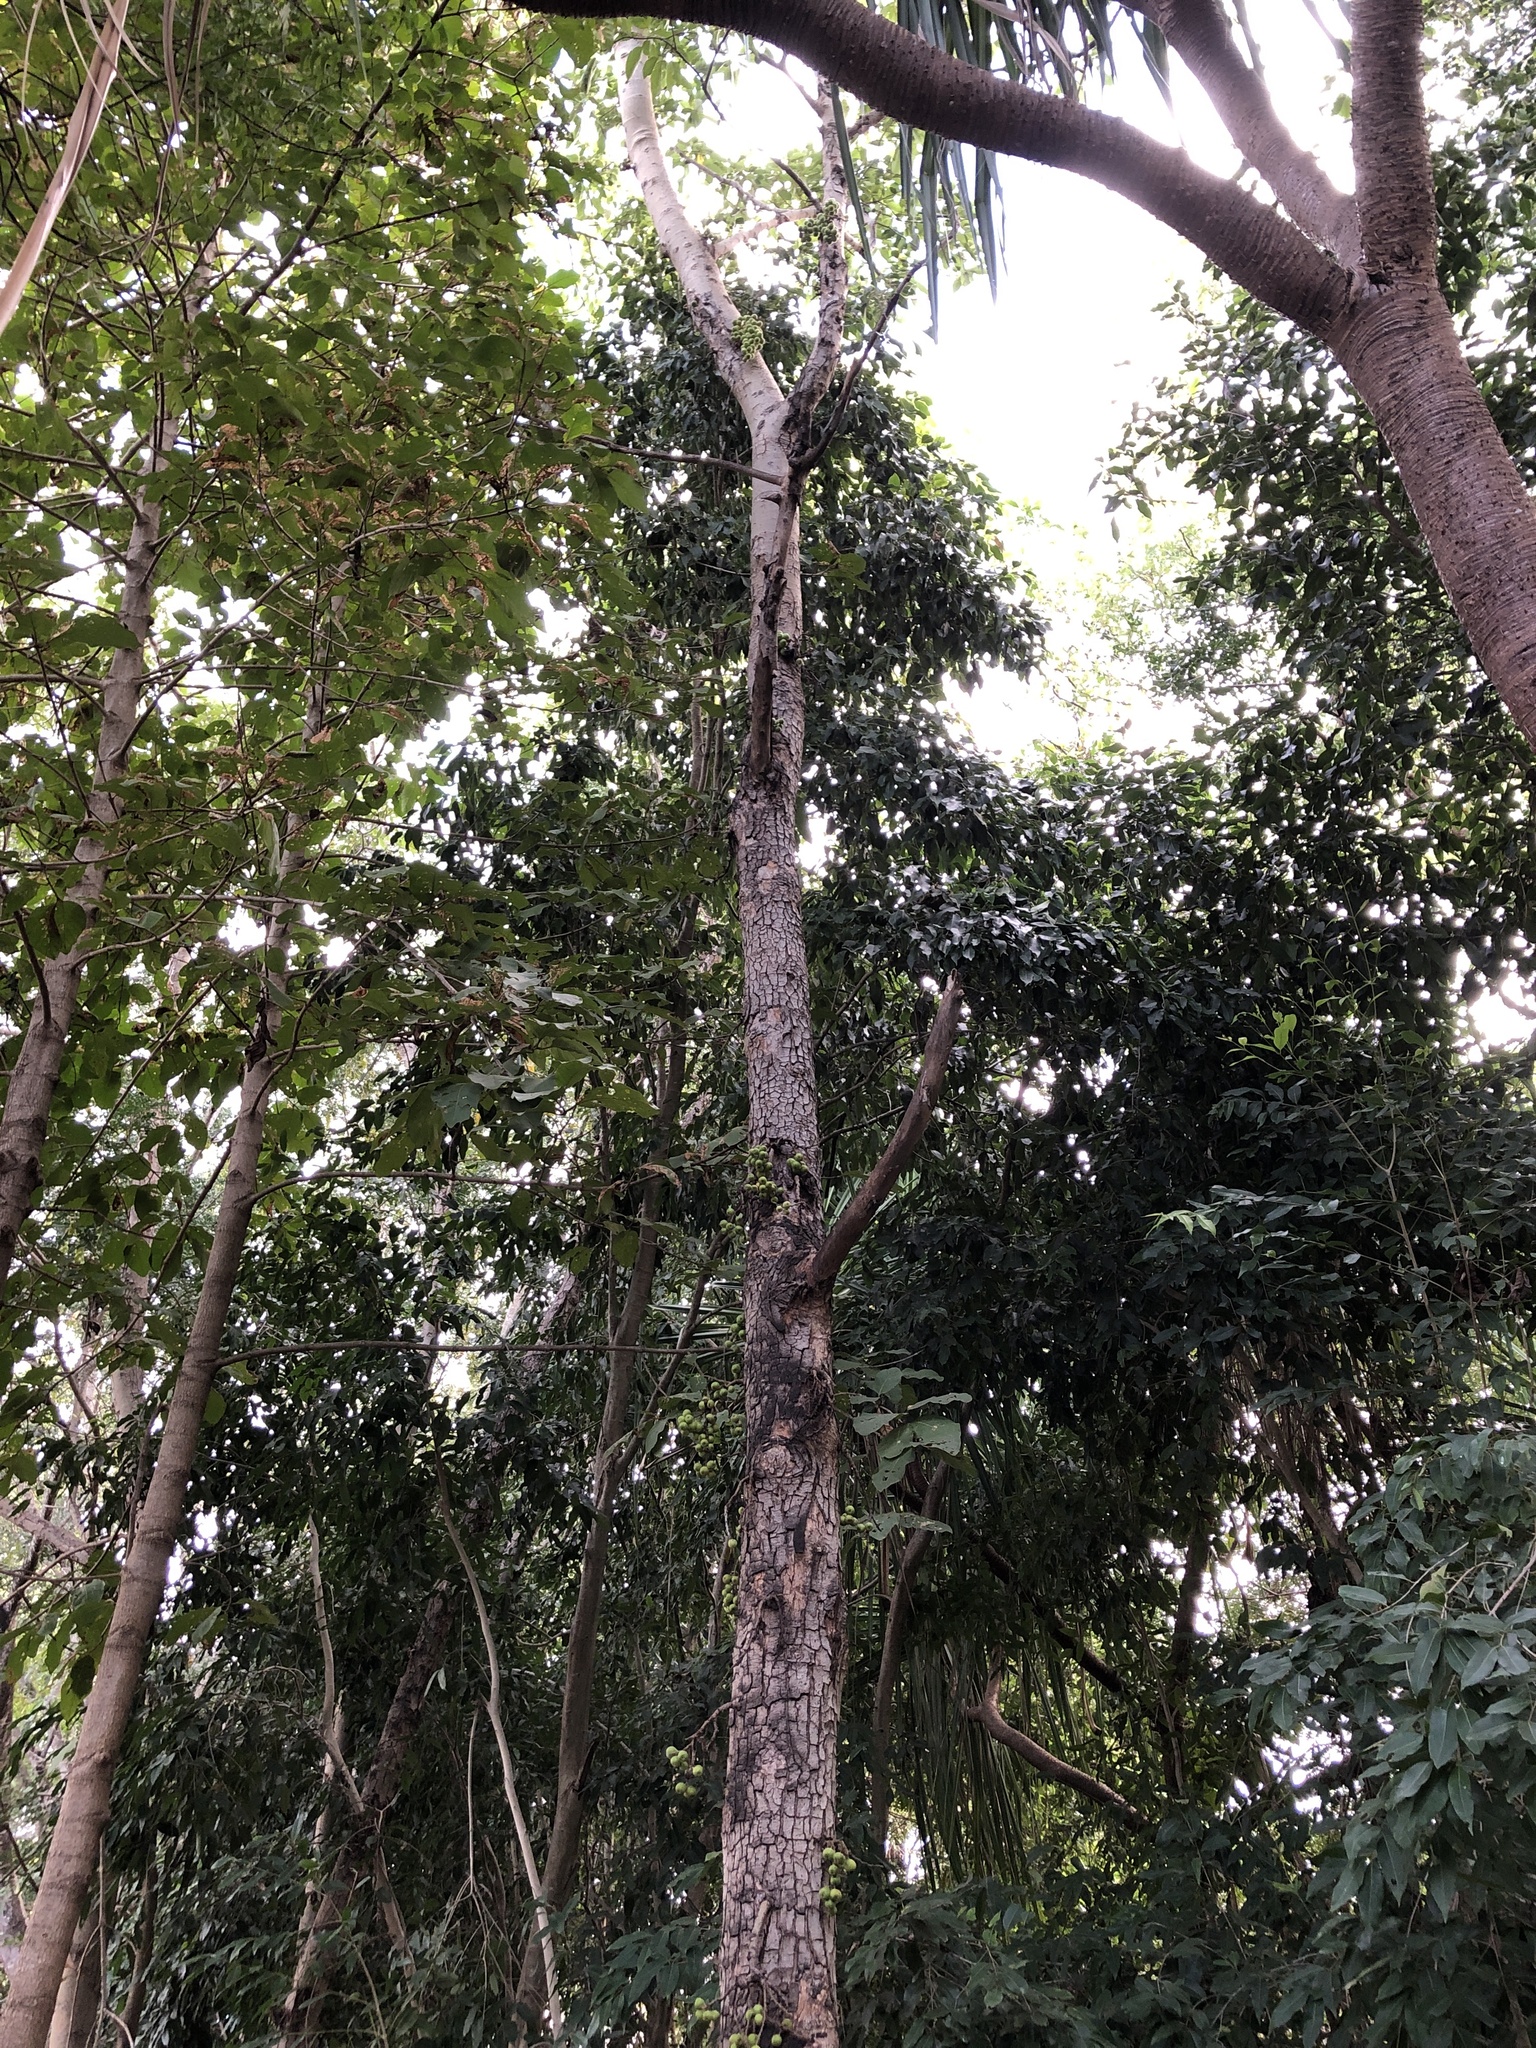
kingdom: Plantae
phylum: Tracheophyta
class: Magnoliopsida
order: Rosales
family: Moraceae
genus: Ficus
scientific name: Ficus racemosa
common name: Cluster fig
